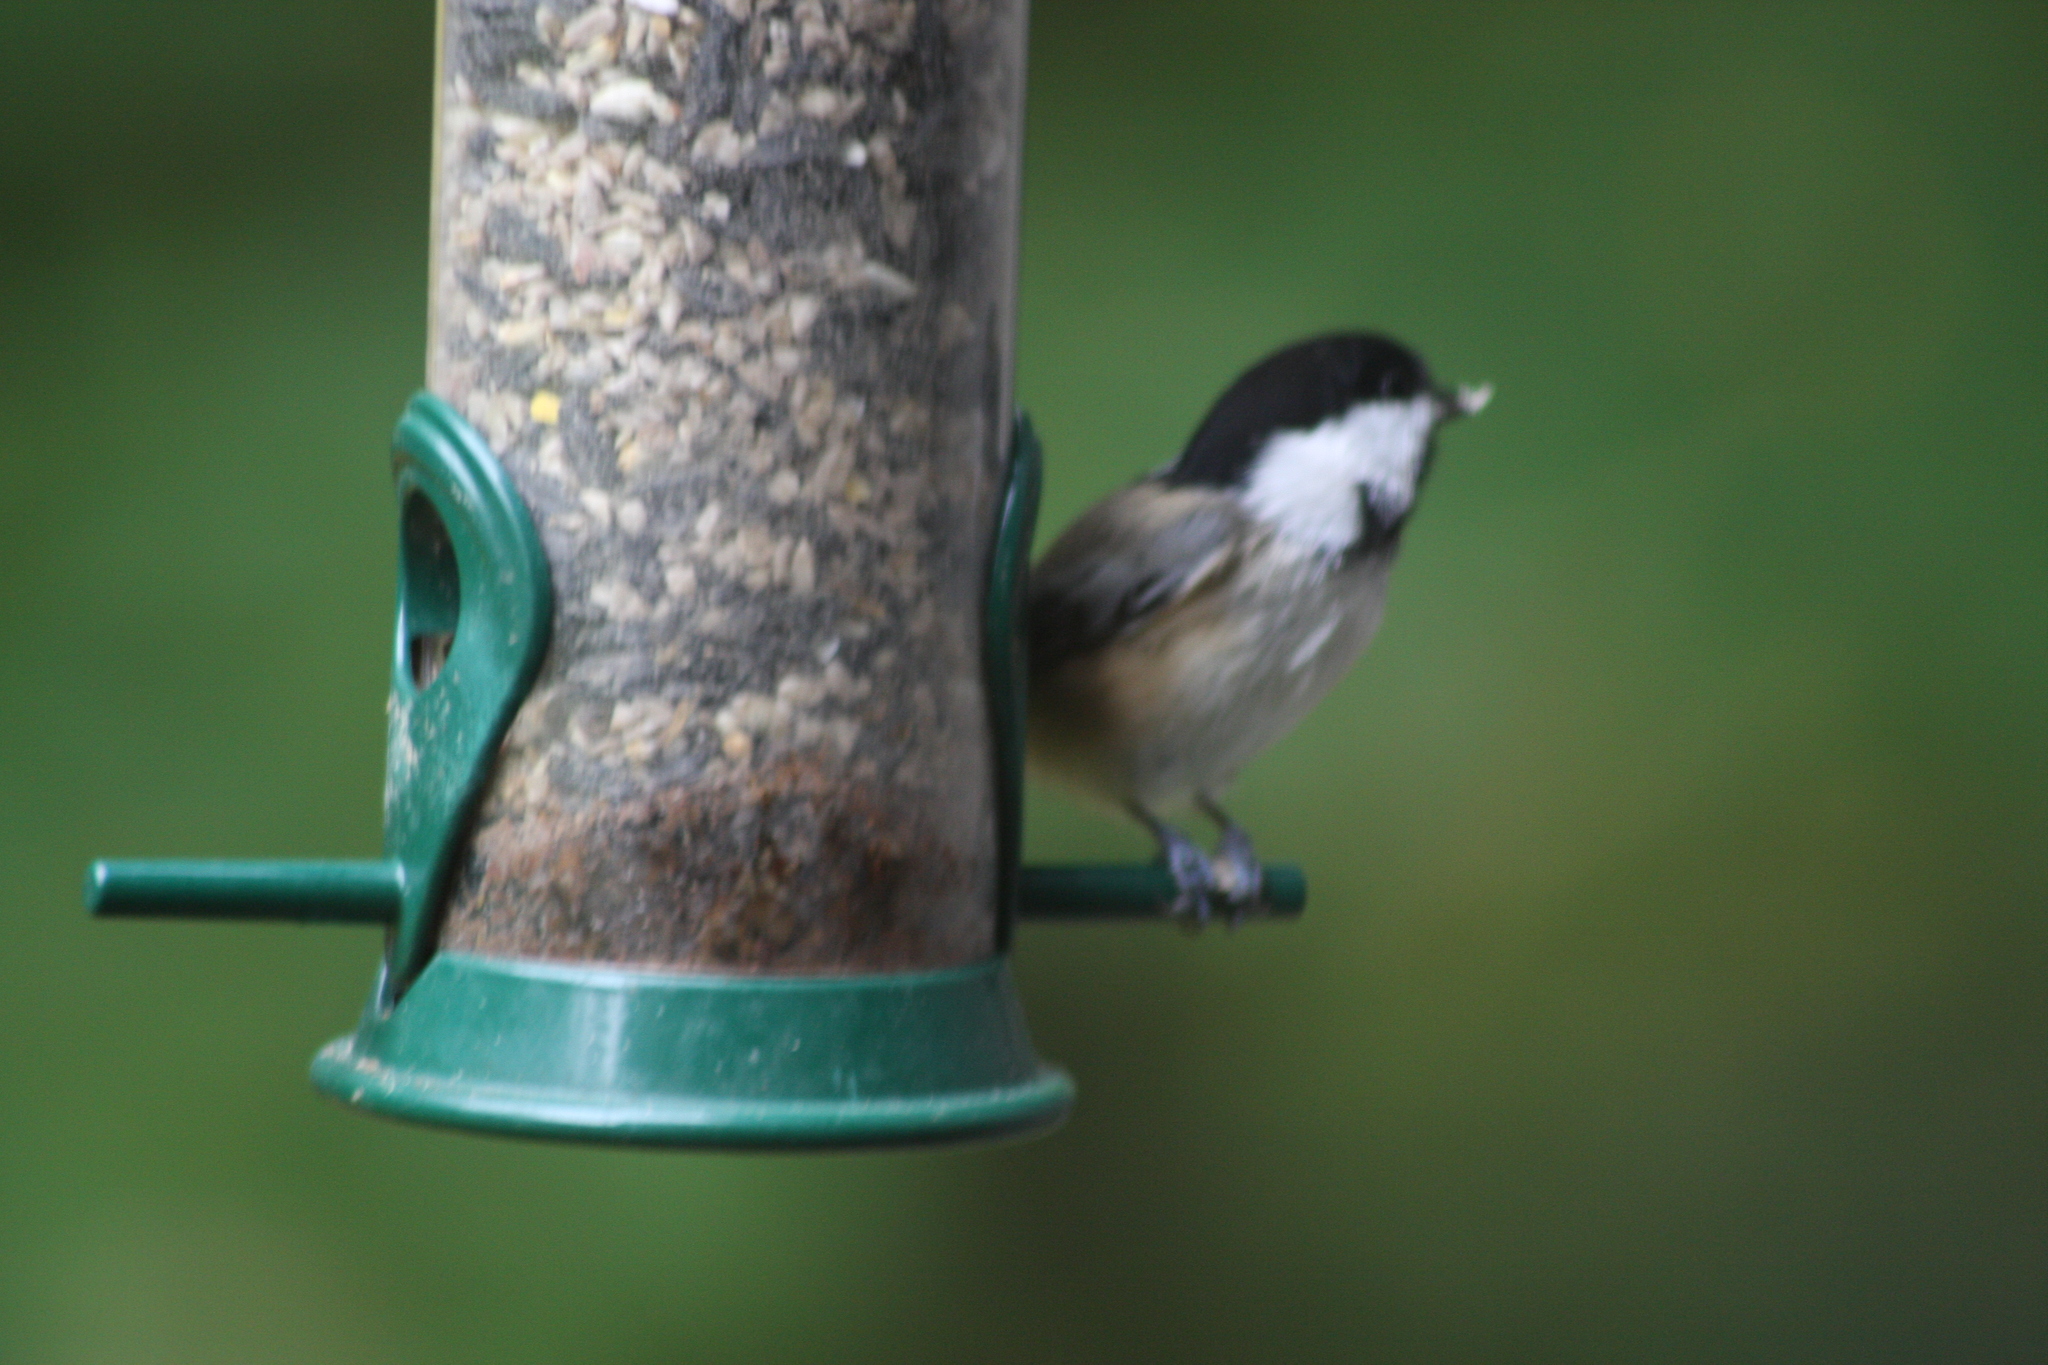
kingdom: Animalia
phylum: Chordata
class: Aves
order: Passeriformes
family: Paridae
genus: Poecile
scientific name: Poecile atricapillus
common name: Black-capped chickadee
